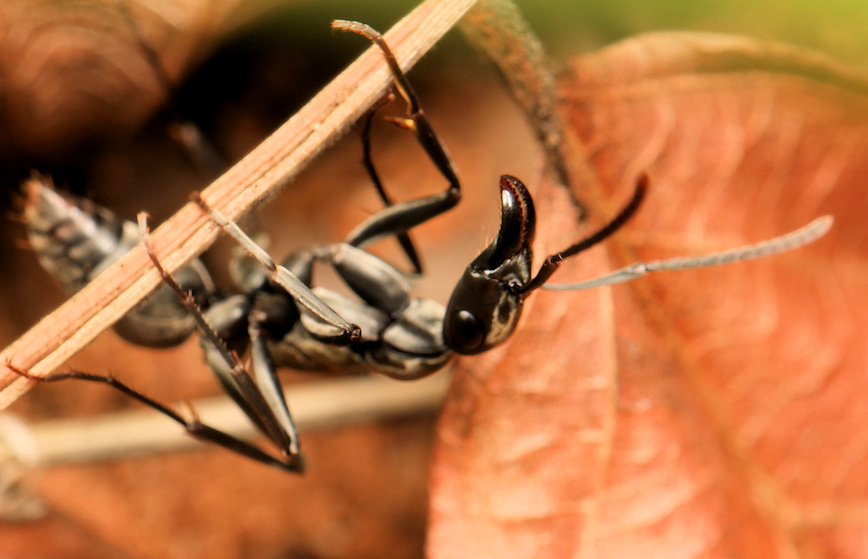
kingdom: Animalia
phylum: Arthropoda
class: Insecta
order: Hymenoptera
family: Formicidae
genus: Bothroponera
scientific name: Bothroponera berthoudi
